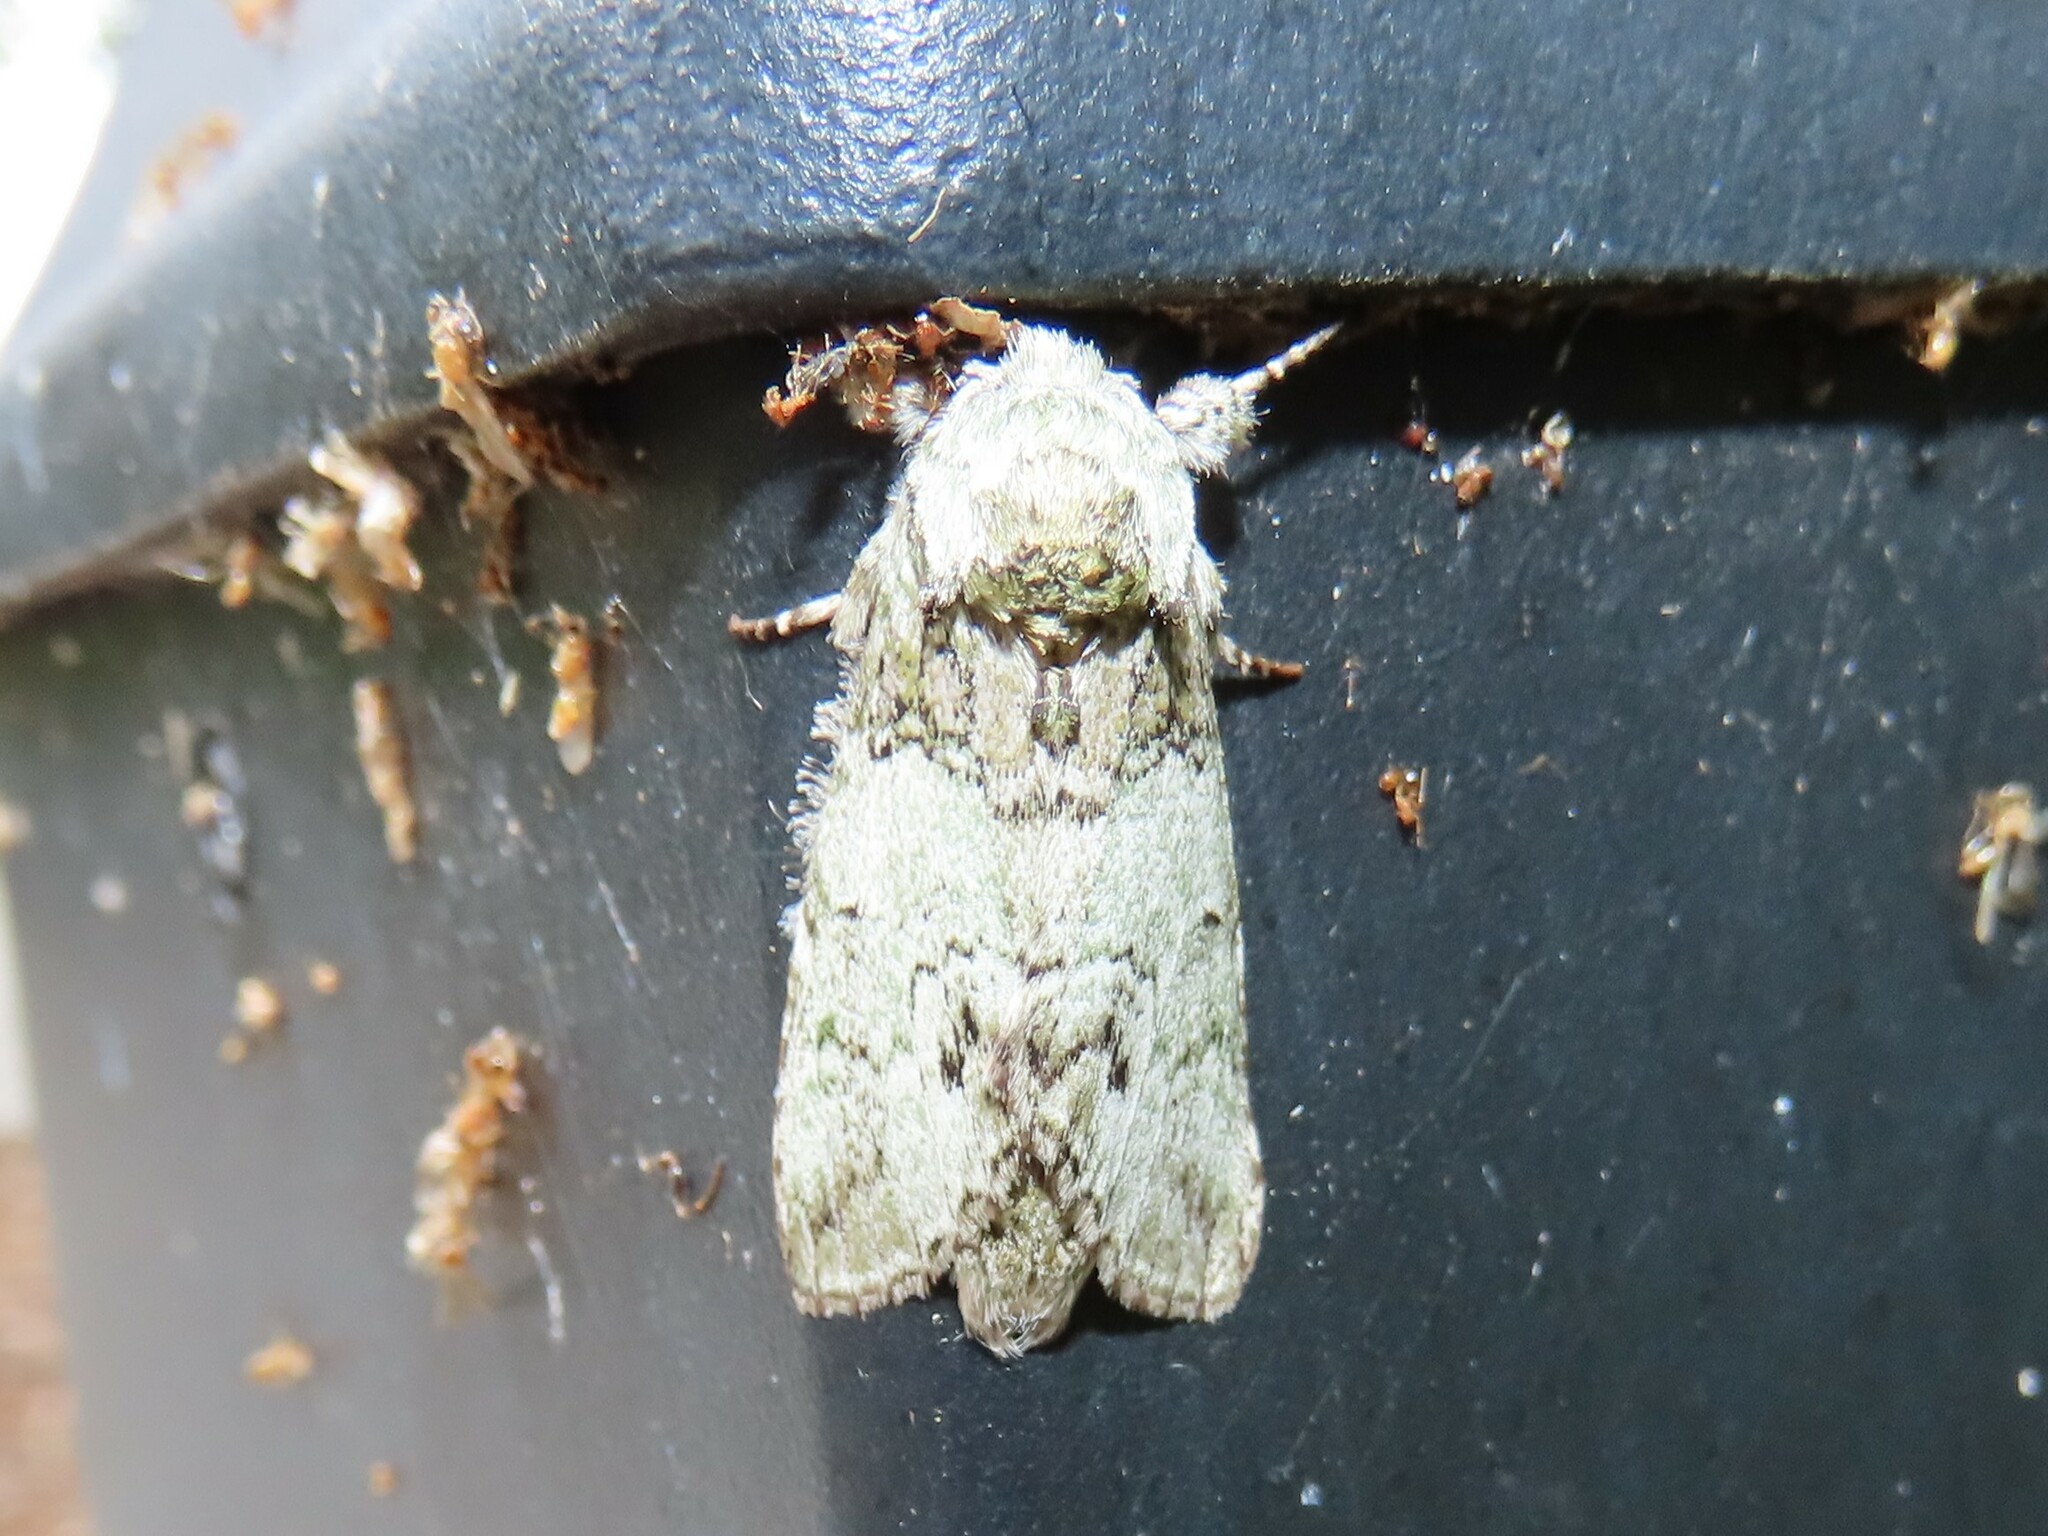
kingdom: Animalia
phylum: Arthropoda
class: Insecta
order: Lepidoptera
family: Notodontidae
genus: Macrurocampa
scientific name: Macrurocampa marthesia
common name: Mottled prominent
